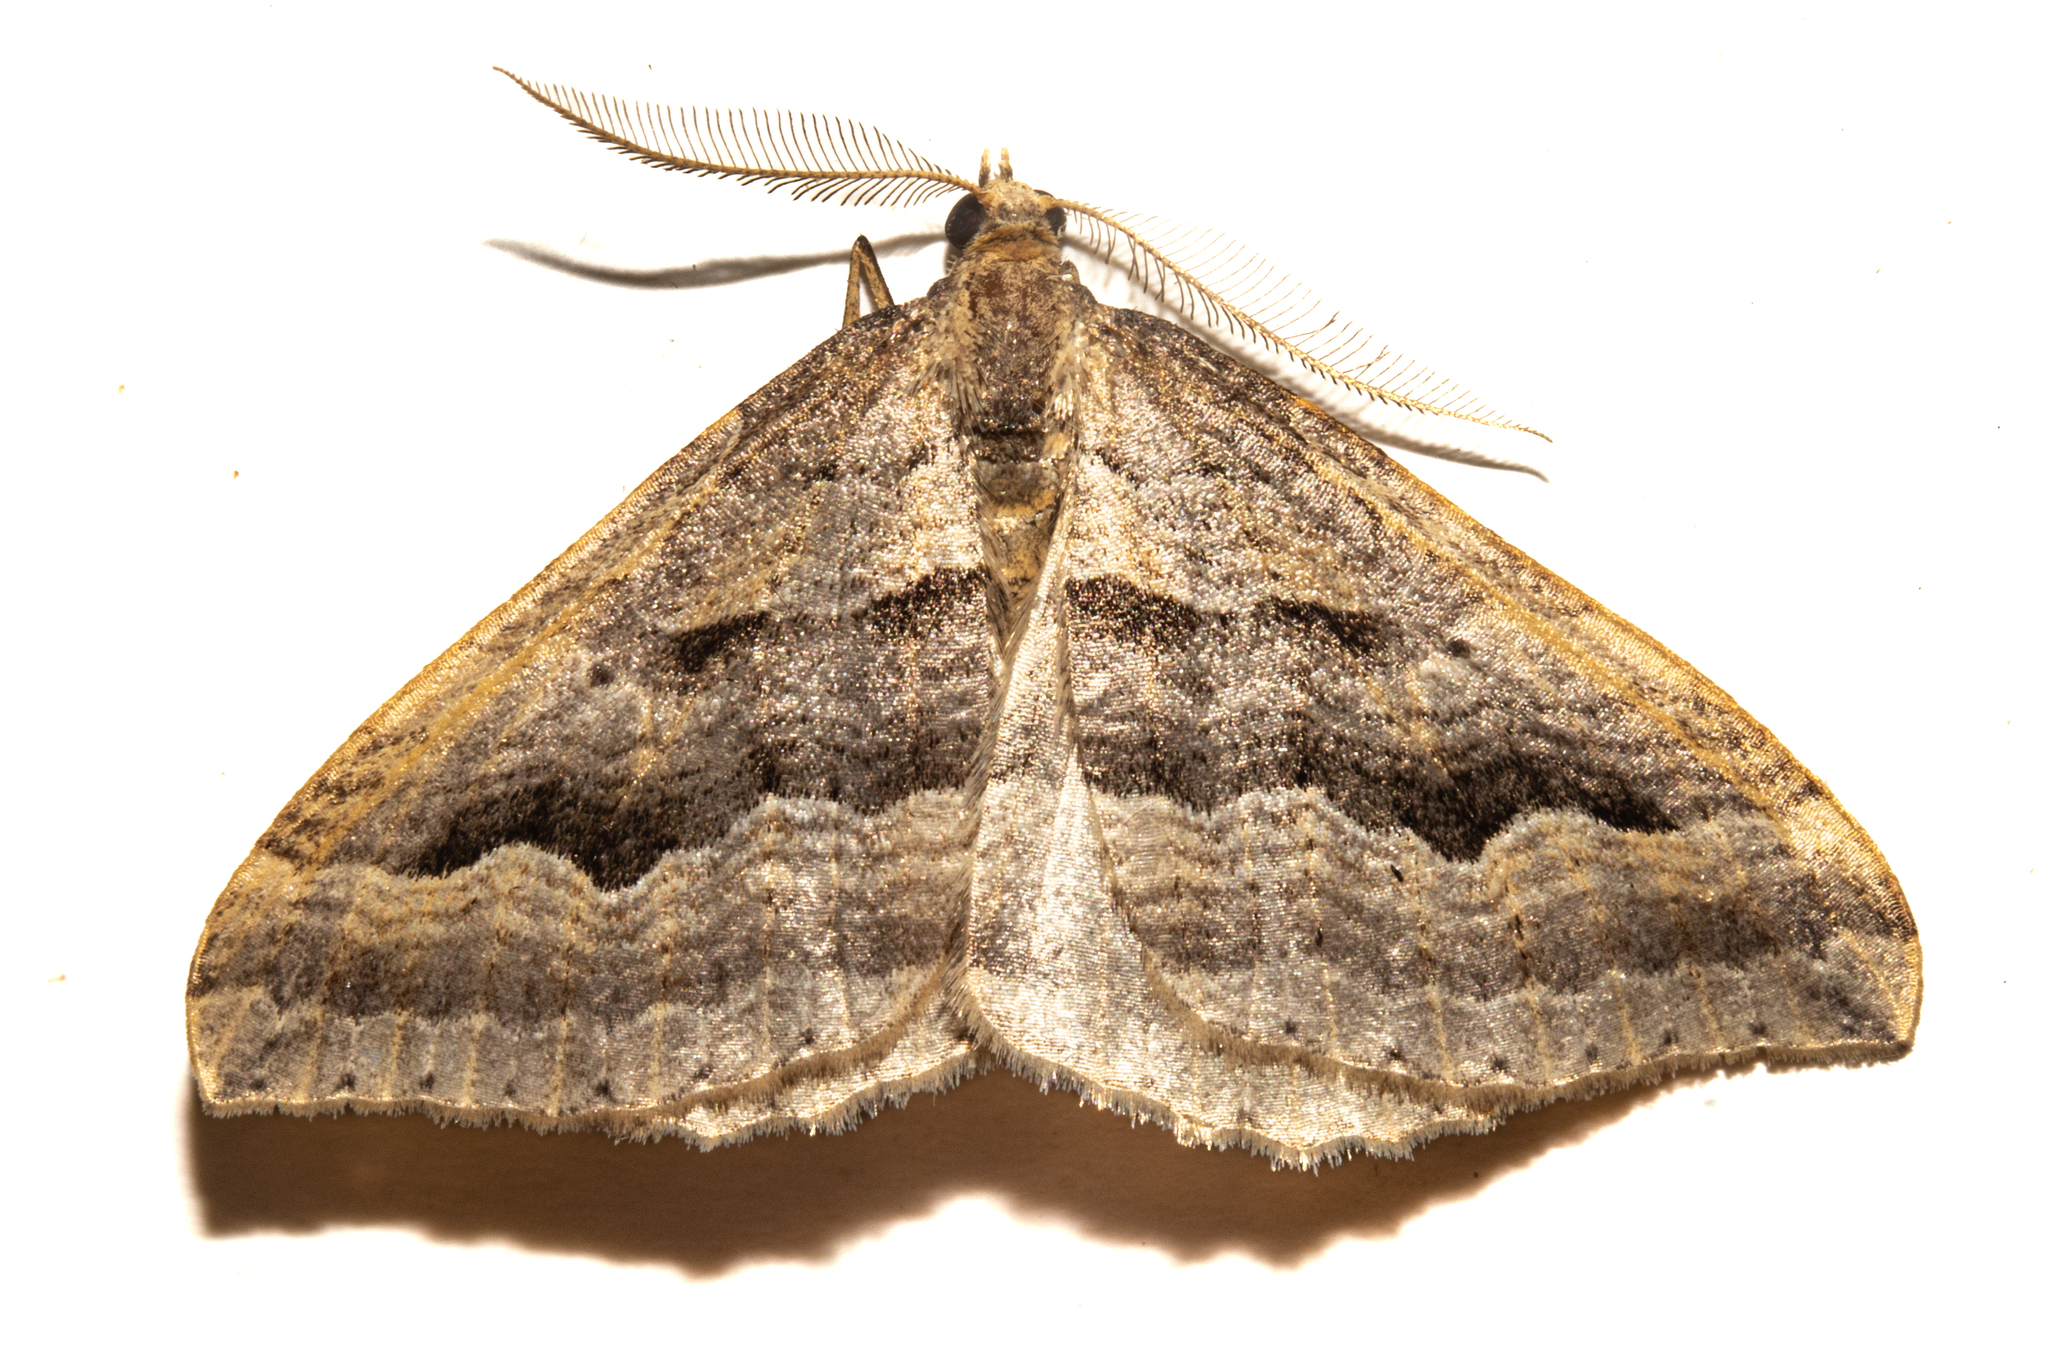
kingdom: Animalia
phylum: Arthropoda
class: Insecta
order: Lepidoptera
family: Geometridae
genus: Austrocidaria
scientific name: Austrocidaria stricta
